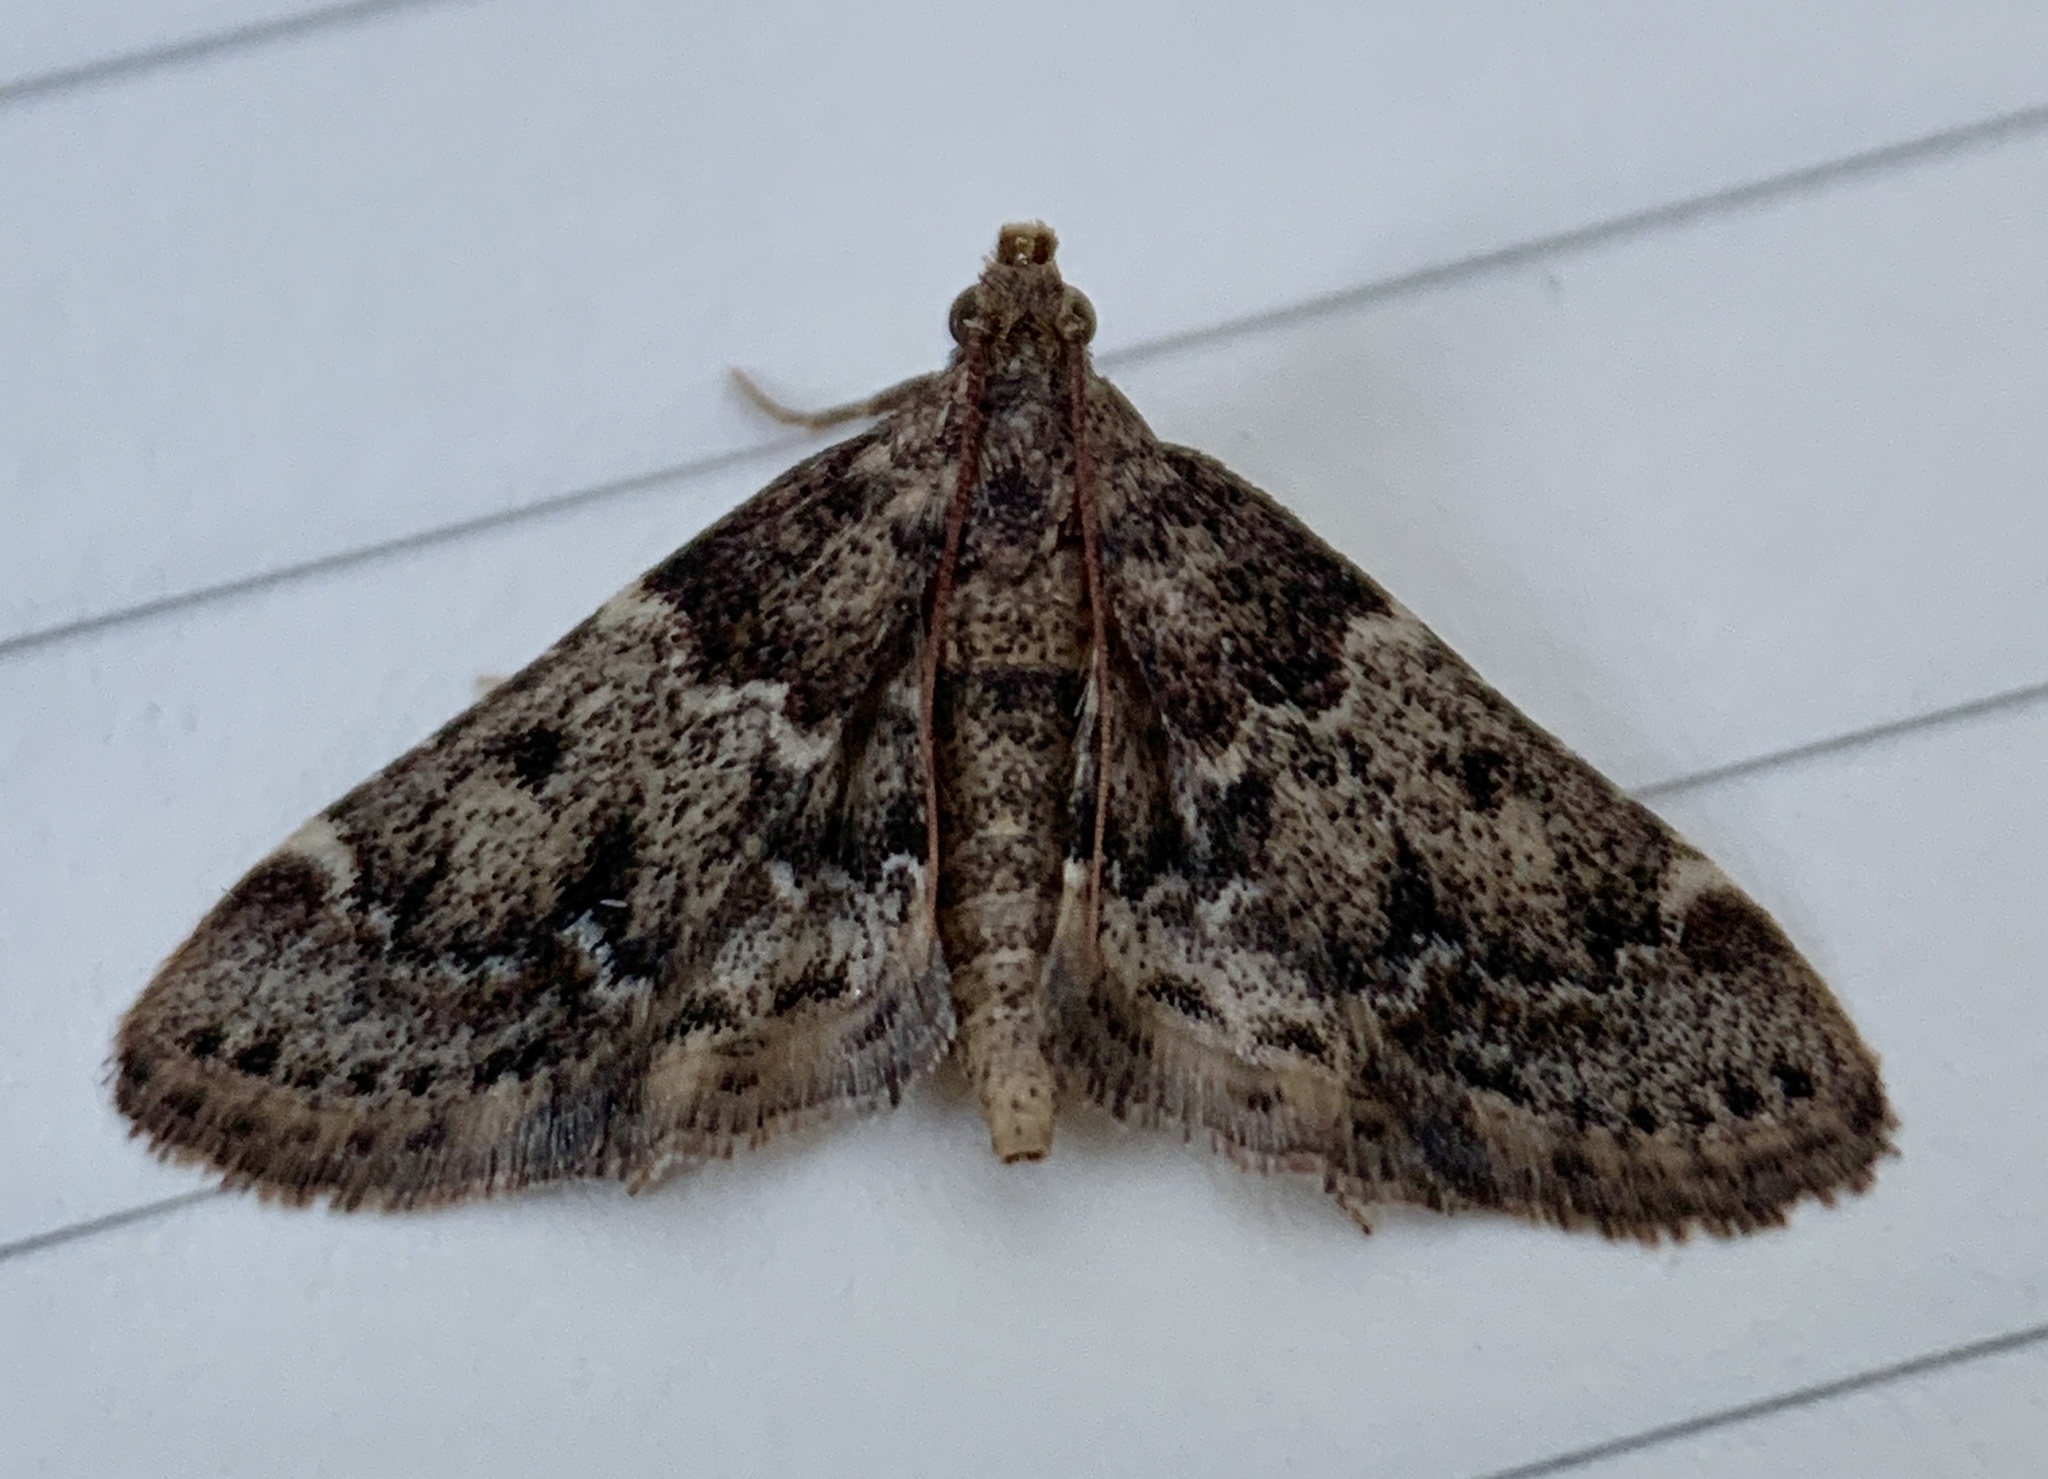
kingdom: Animalia
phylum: Arthropoda
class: Insecta
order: Lepidoptera
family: Pyralidae
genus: Pyralis
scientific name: Pyralis manihotalis
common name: Moth
